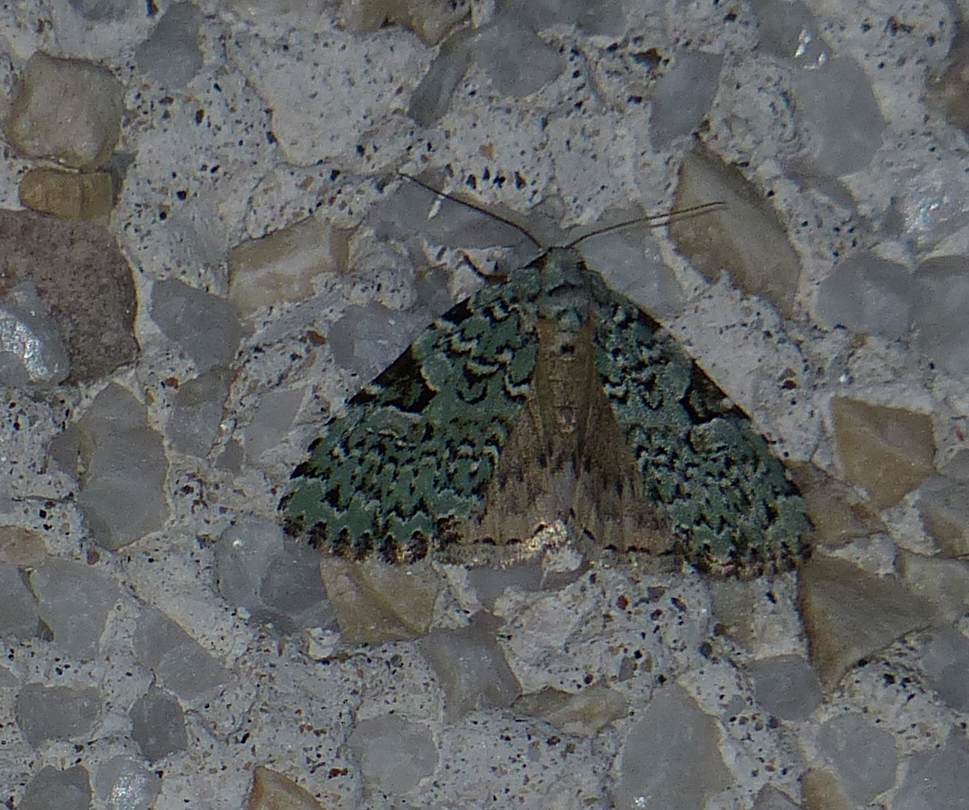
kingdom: Animalia
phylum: Arthropoda
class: Insecta
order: Lepidoptera
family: Noctuidae
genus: Leuconycta
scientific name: Leuconycta diphteroides
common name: Green leuconycta moth
